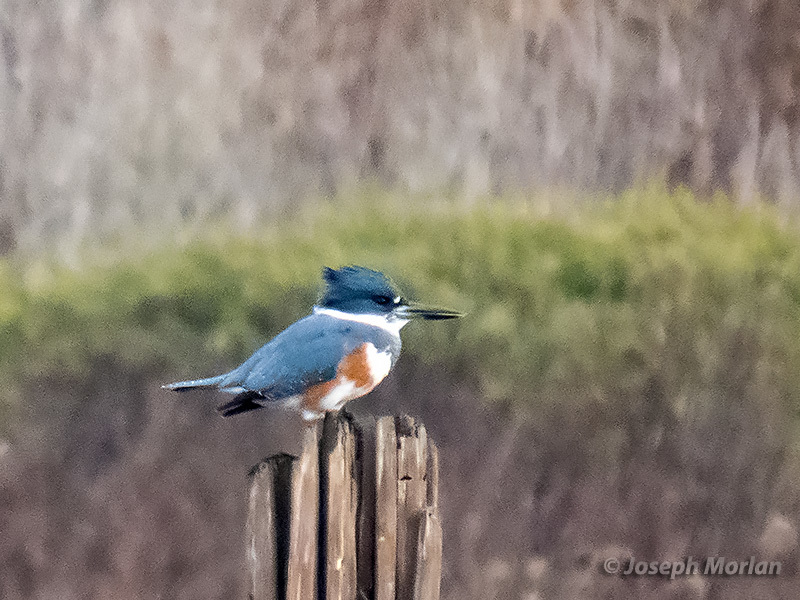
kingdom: Animalia
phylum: Chordata
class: Aves
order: Coraciiformes
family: Alcedinidae
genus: Megaceryle
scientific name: Megaceryle alcyon
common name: Belted kingfisher
